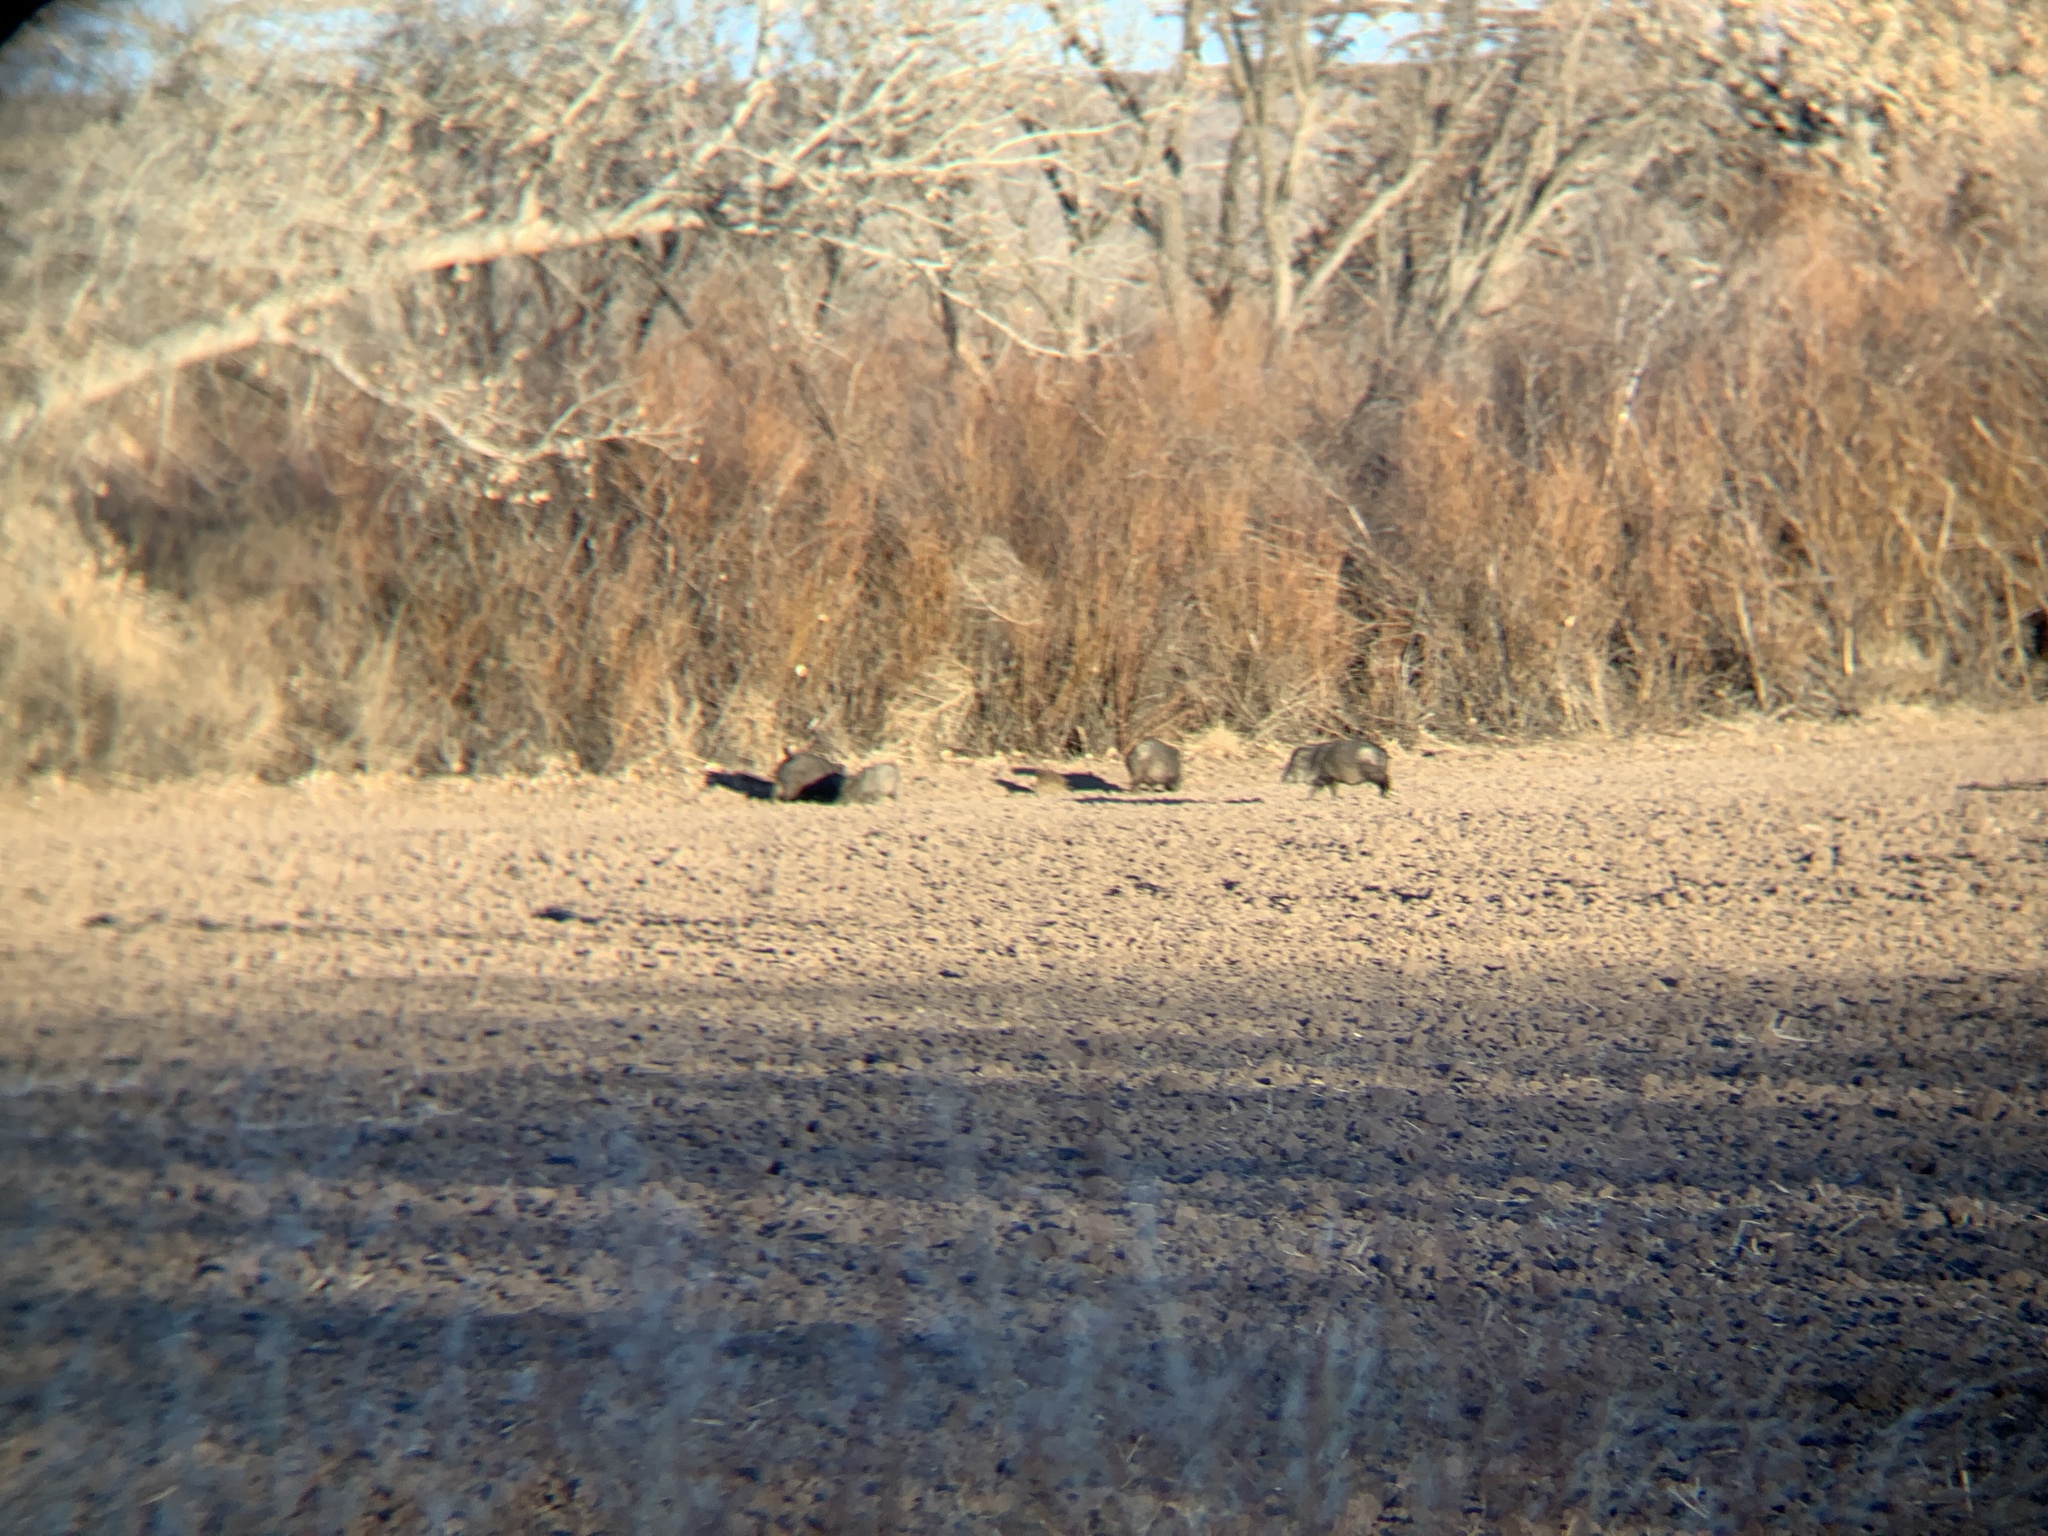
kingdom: Animalia
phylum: Chordata
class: Mammalia
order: Artiodactyla
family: Tayassuidae
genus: Pecari
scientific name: Pecari tajacu
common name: Collared peccary
